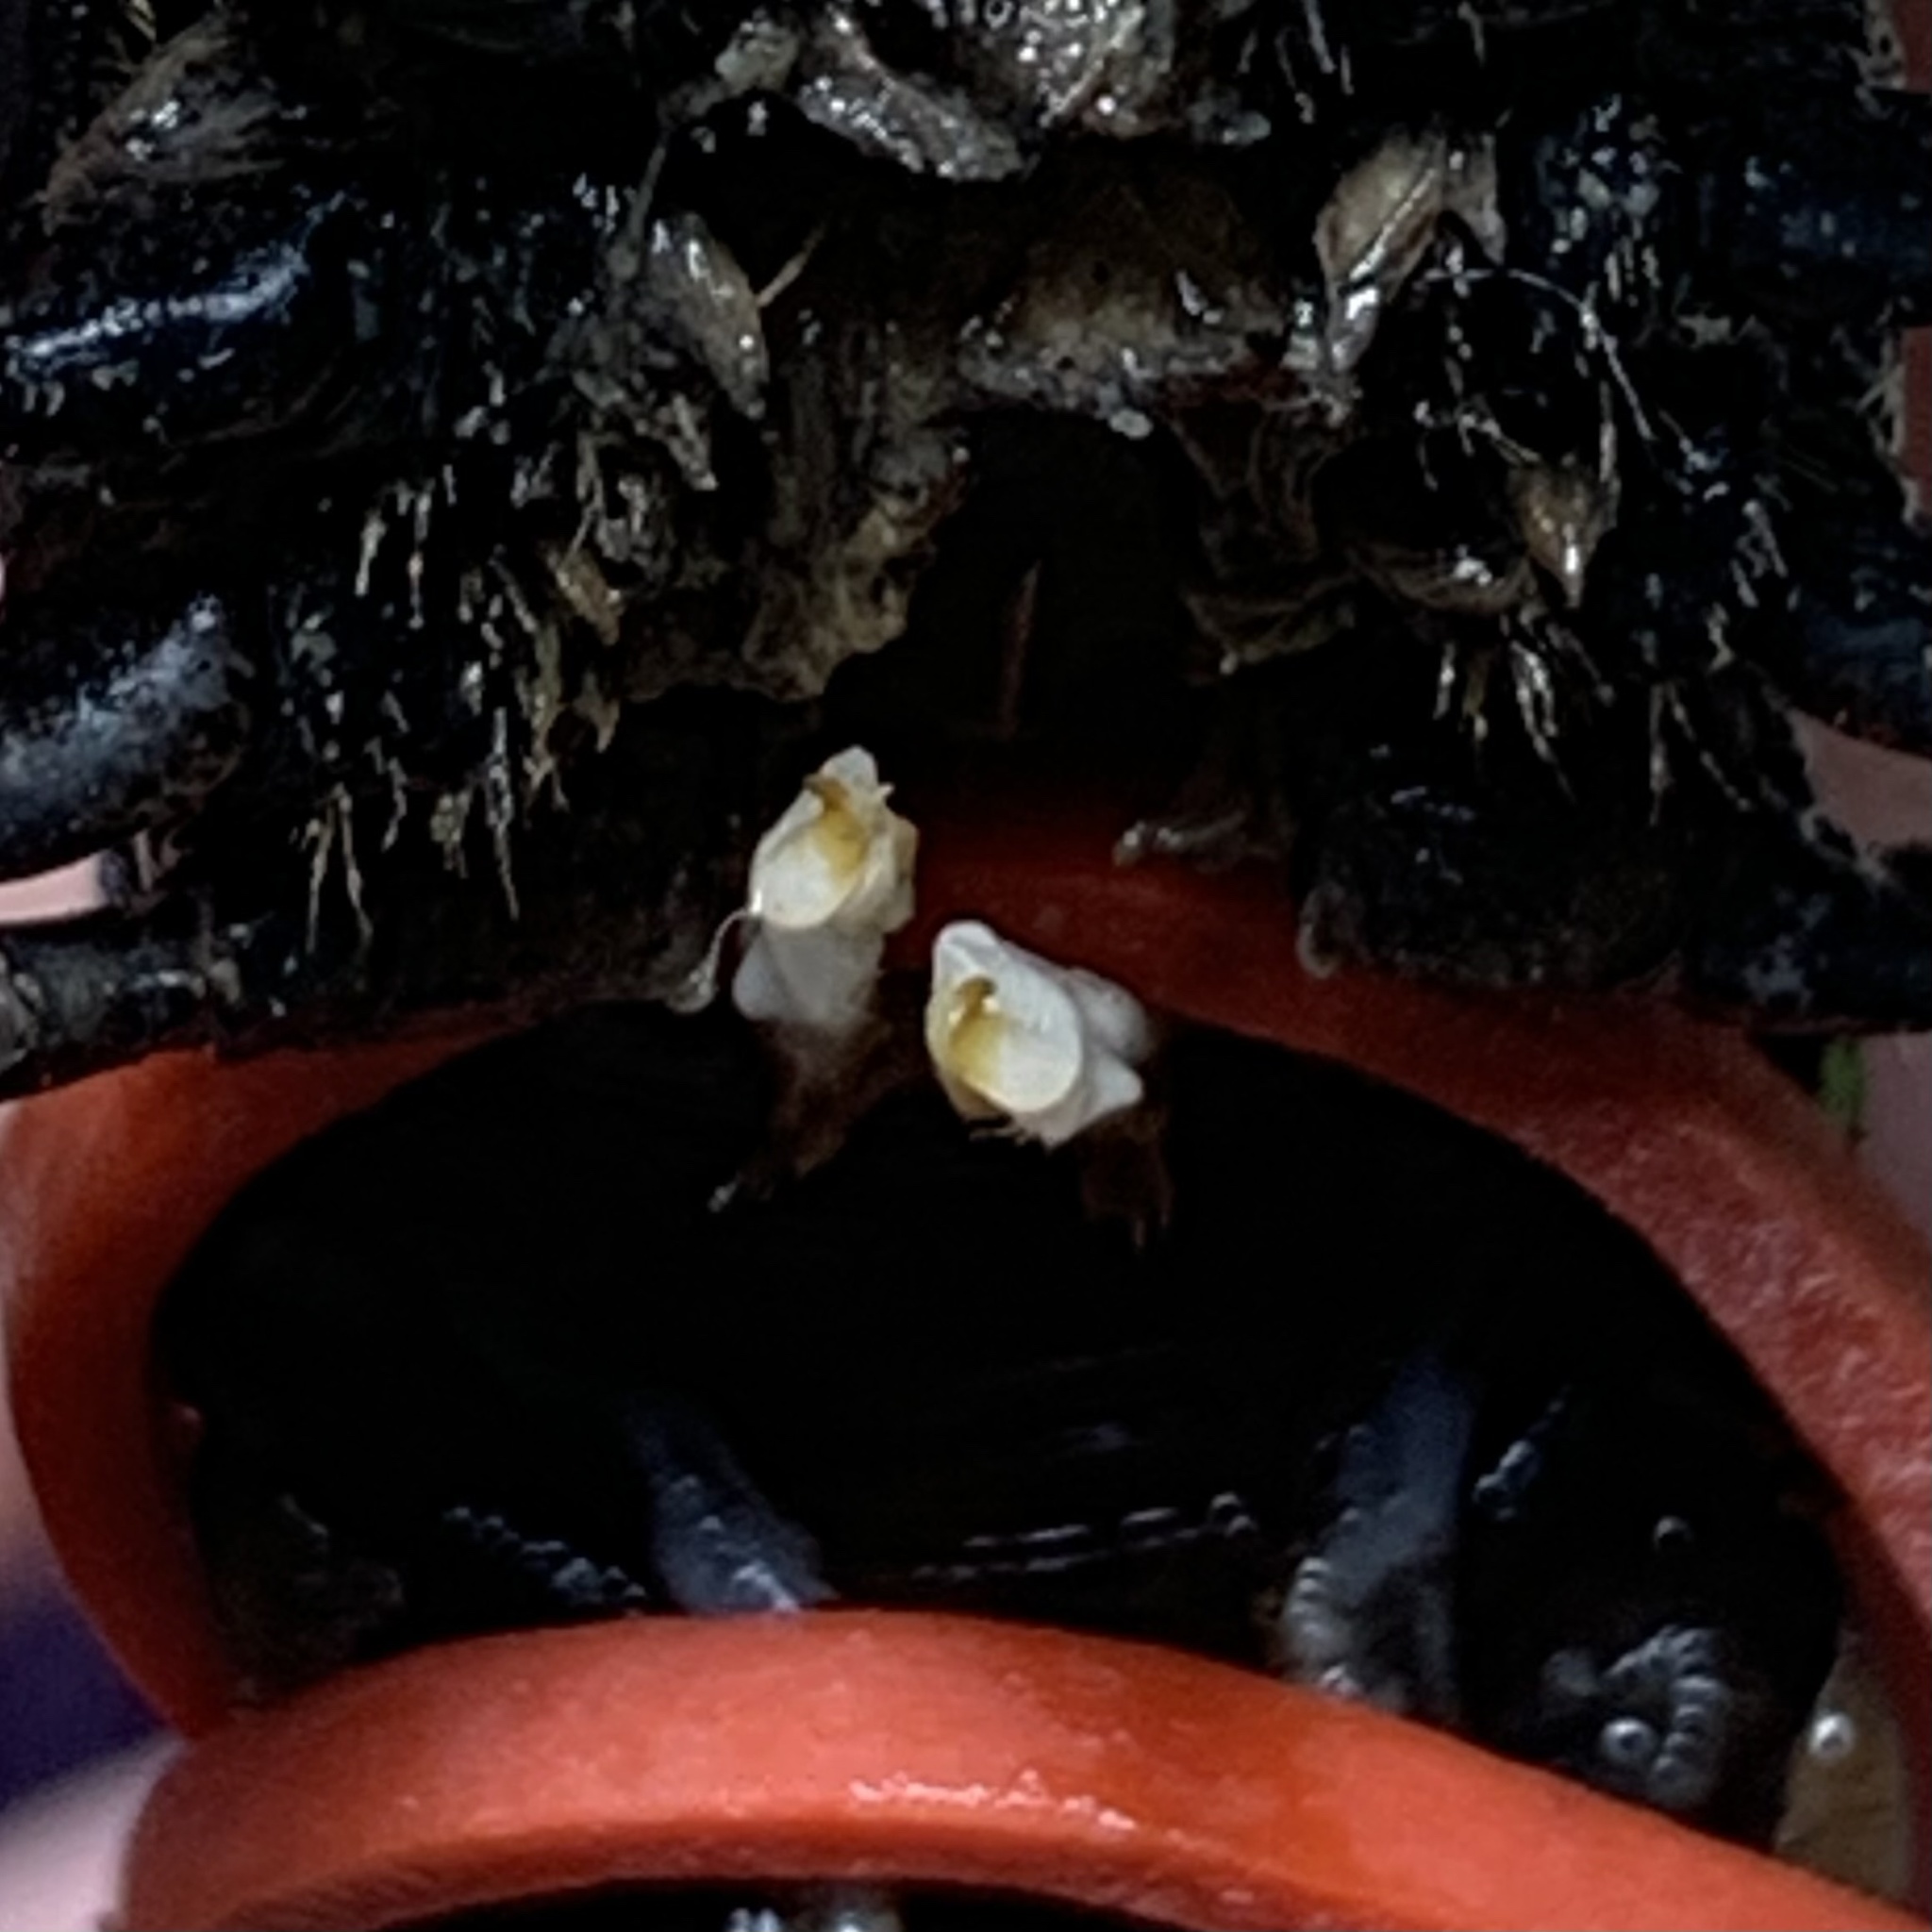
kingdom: Animalia
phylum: Arthropoda
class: Malacostraca
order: Decapoda
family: Cambaridae
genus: Procambarus
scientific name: Procambarus curdi
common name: Red river burrowing crayfish
